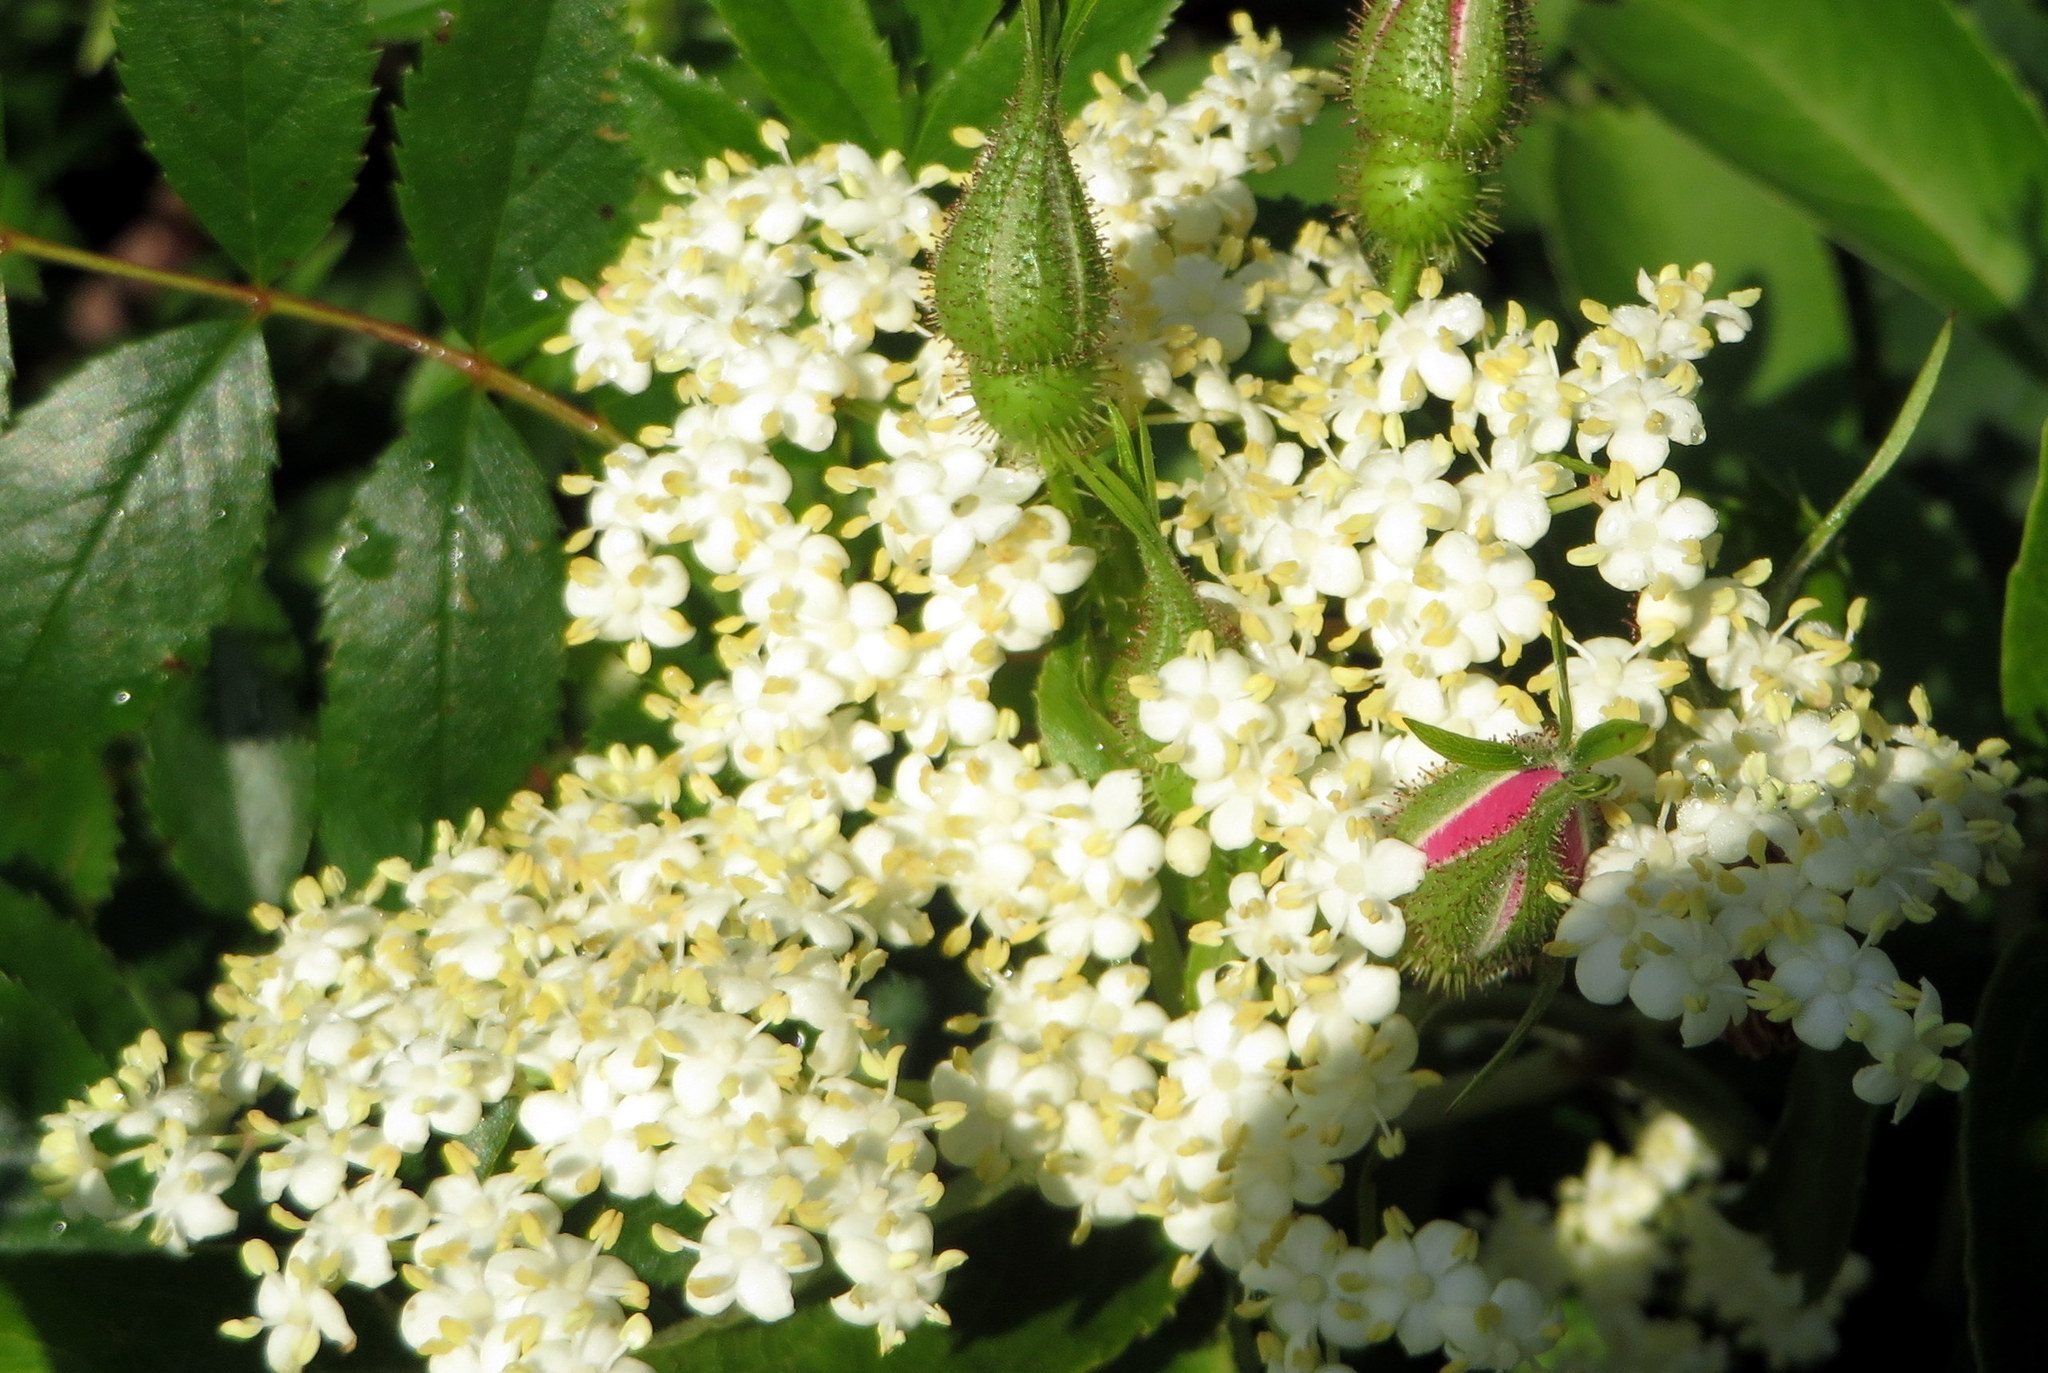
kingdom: Plantae
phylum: Tracheophyta
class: Magnoliopsida
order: Dipsacales
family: Viburnaceae
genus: Sambucus
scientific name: Sambucus canadensis
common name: American elder
